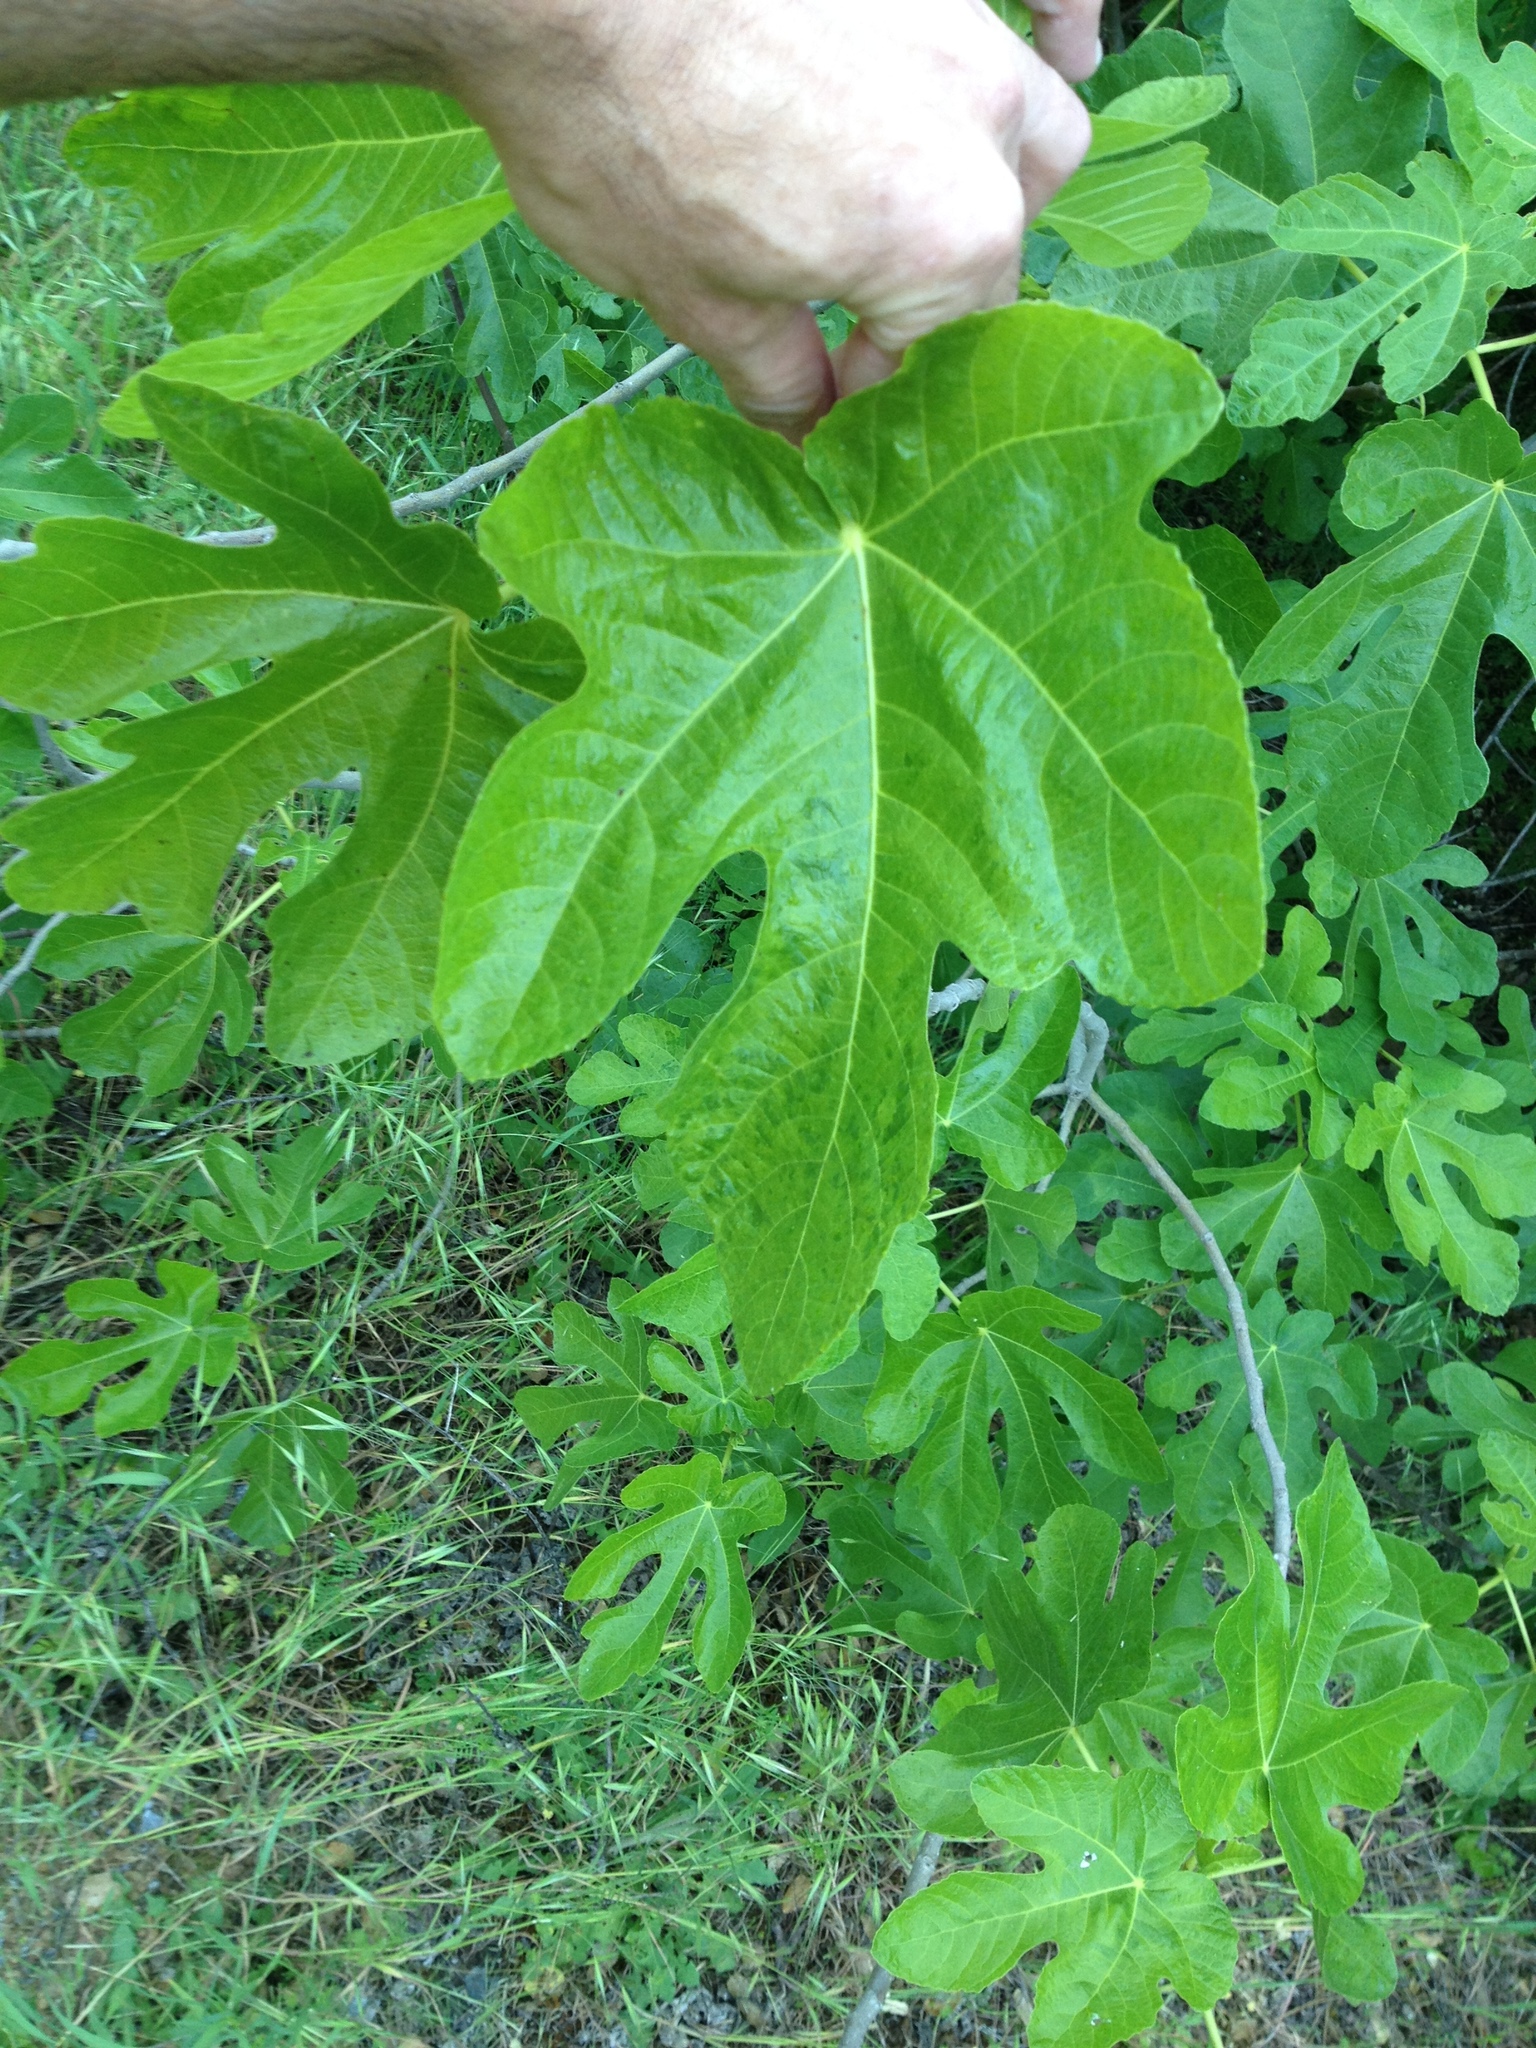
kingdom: Plantae
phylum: Tracheophyta
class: Magnoliopsida
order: Rosales
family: Moraceae
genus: Ficus
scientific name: Ficus carica
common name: Fig
